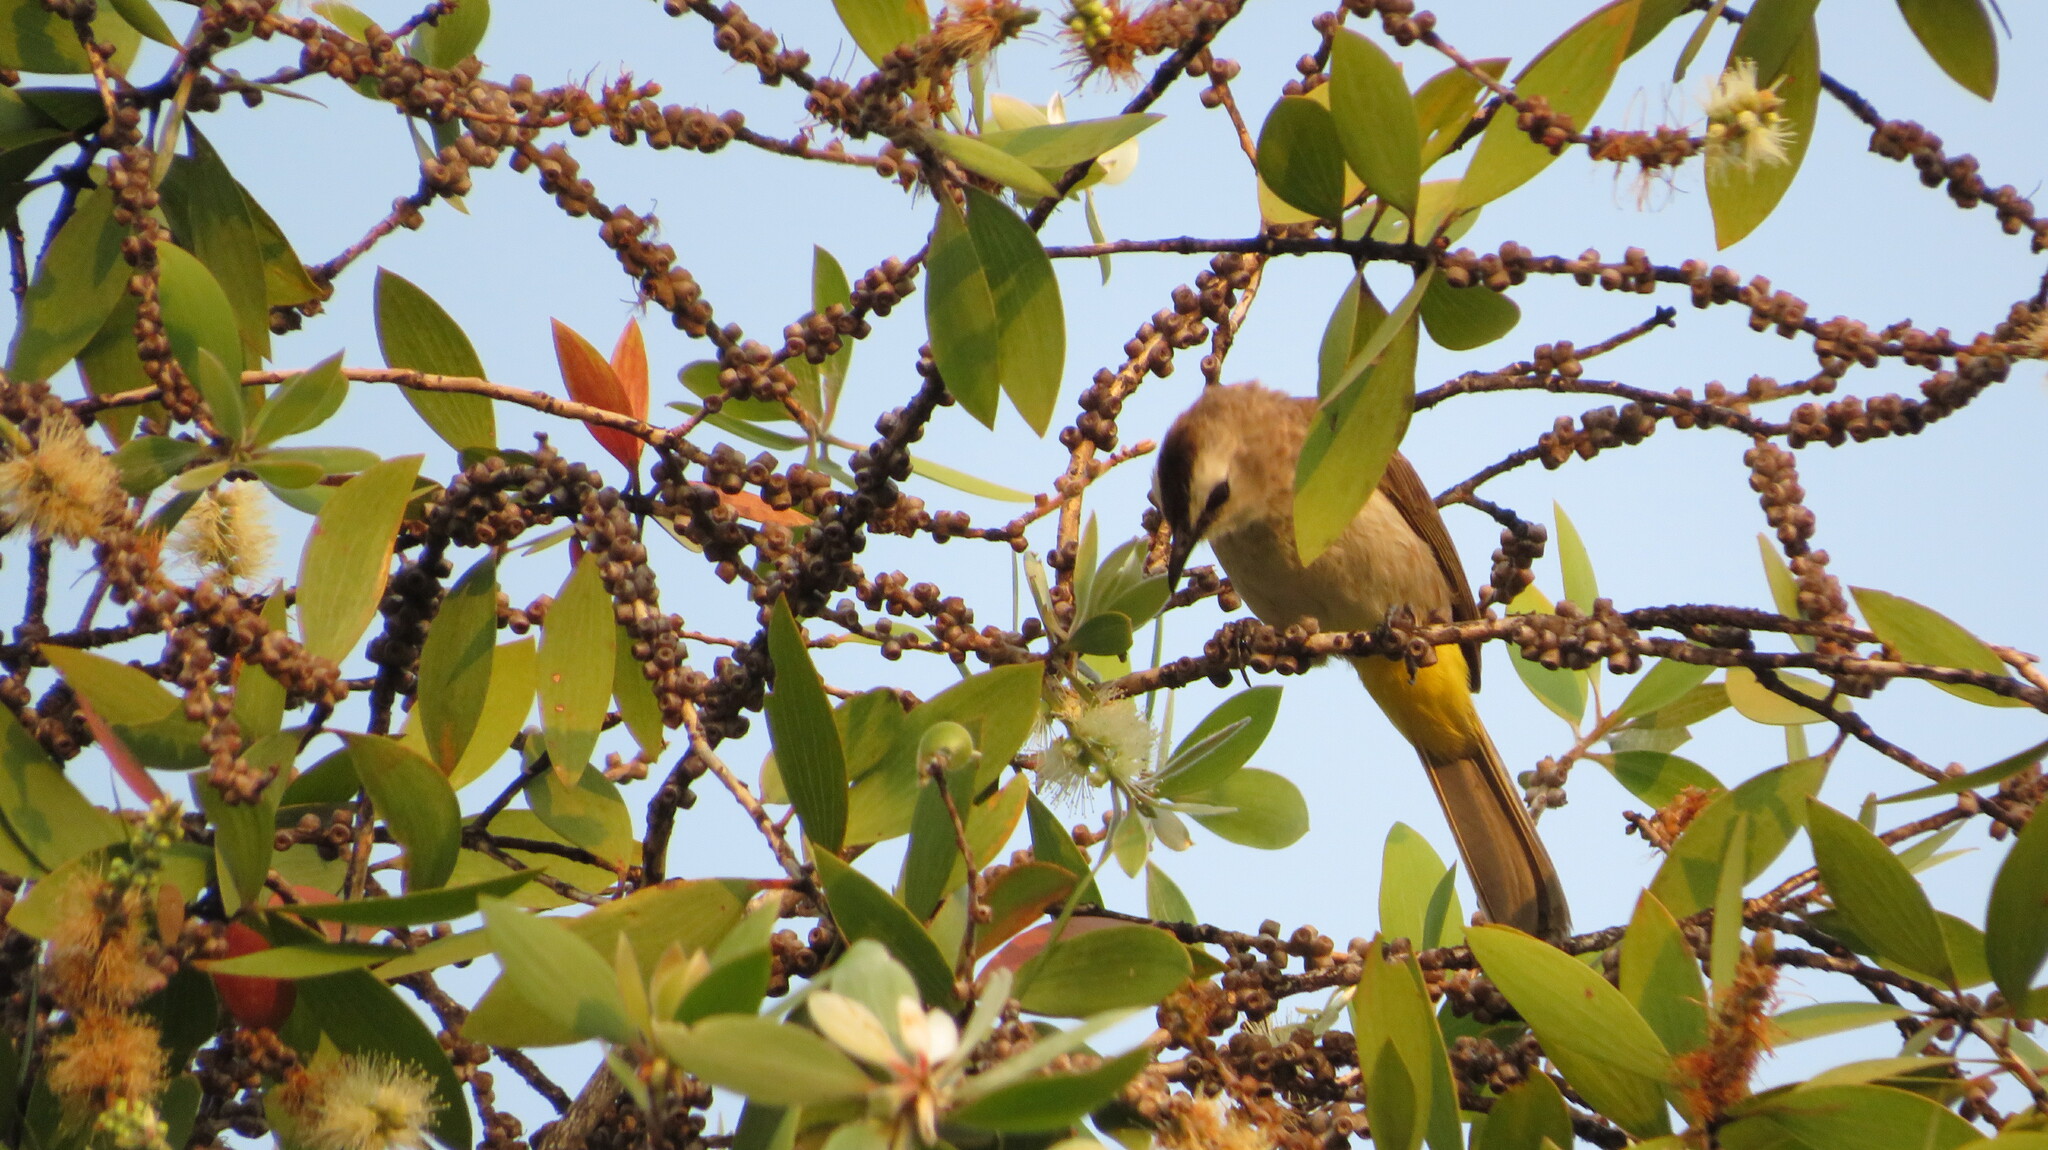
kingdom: Animalia
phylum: Chordata
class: Aves
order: Passeriformes
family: Pycnonotidae
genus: Pycnonotus
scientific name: Pycnonotus goiavier
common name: Yellow-vented bulbul
